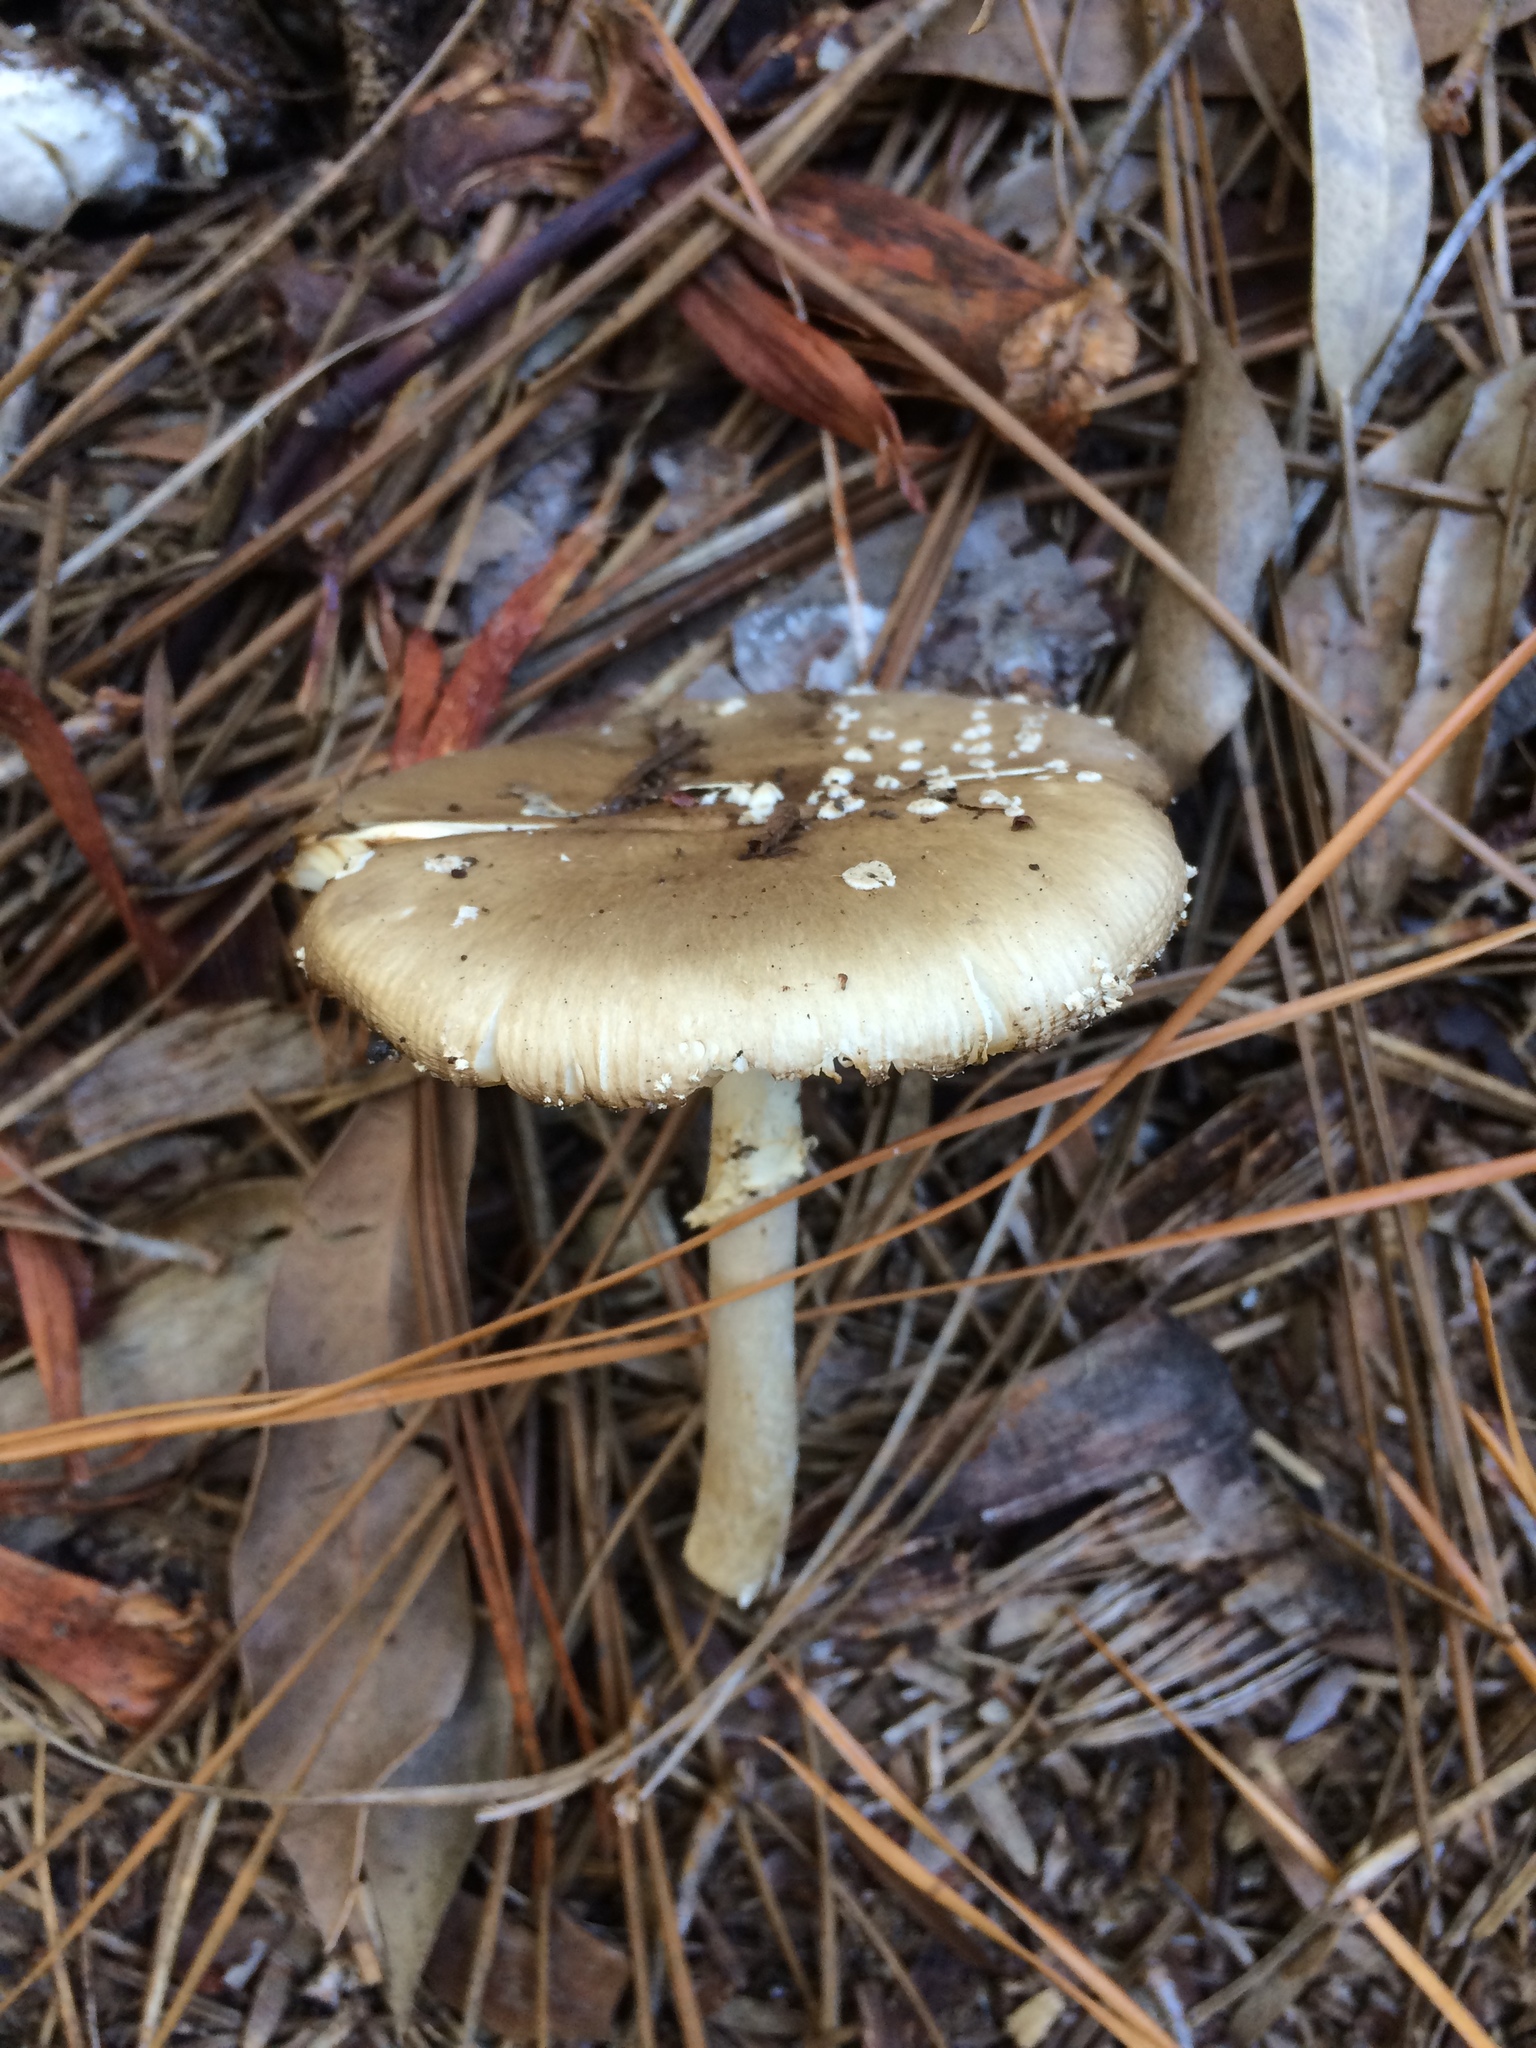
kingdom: Fungi
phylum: Basidiomycota
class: Agaricomycetes
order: Agaricales
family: Amanitaceae
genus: Amanita
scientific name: Amanita pantherina
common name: Panthercap
